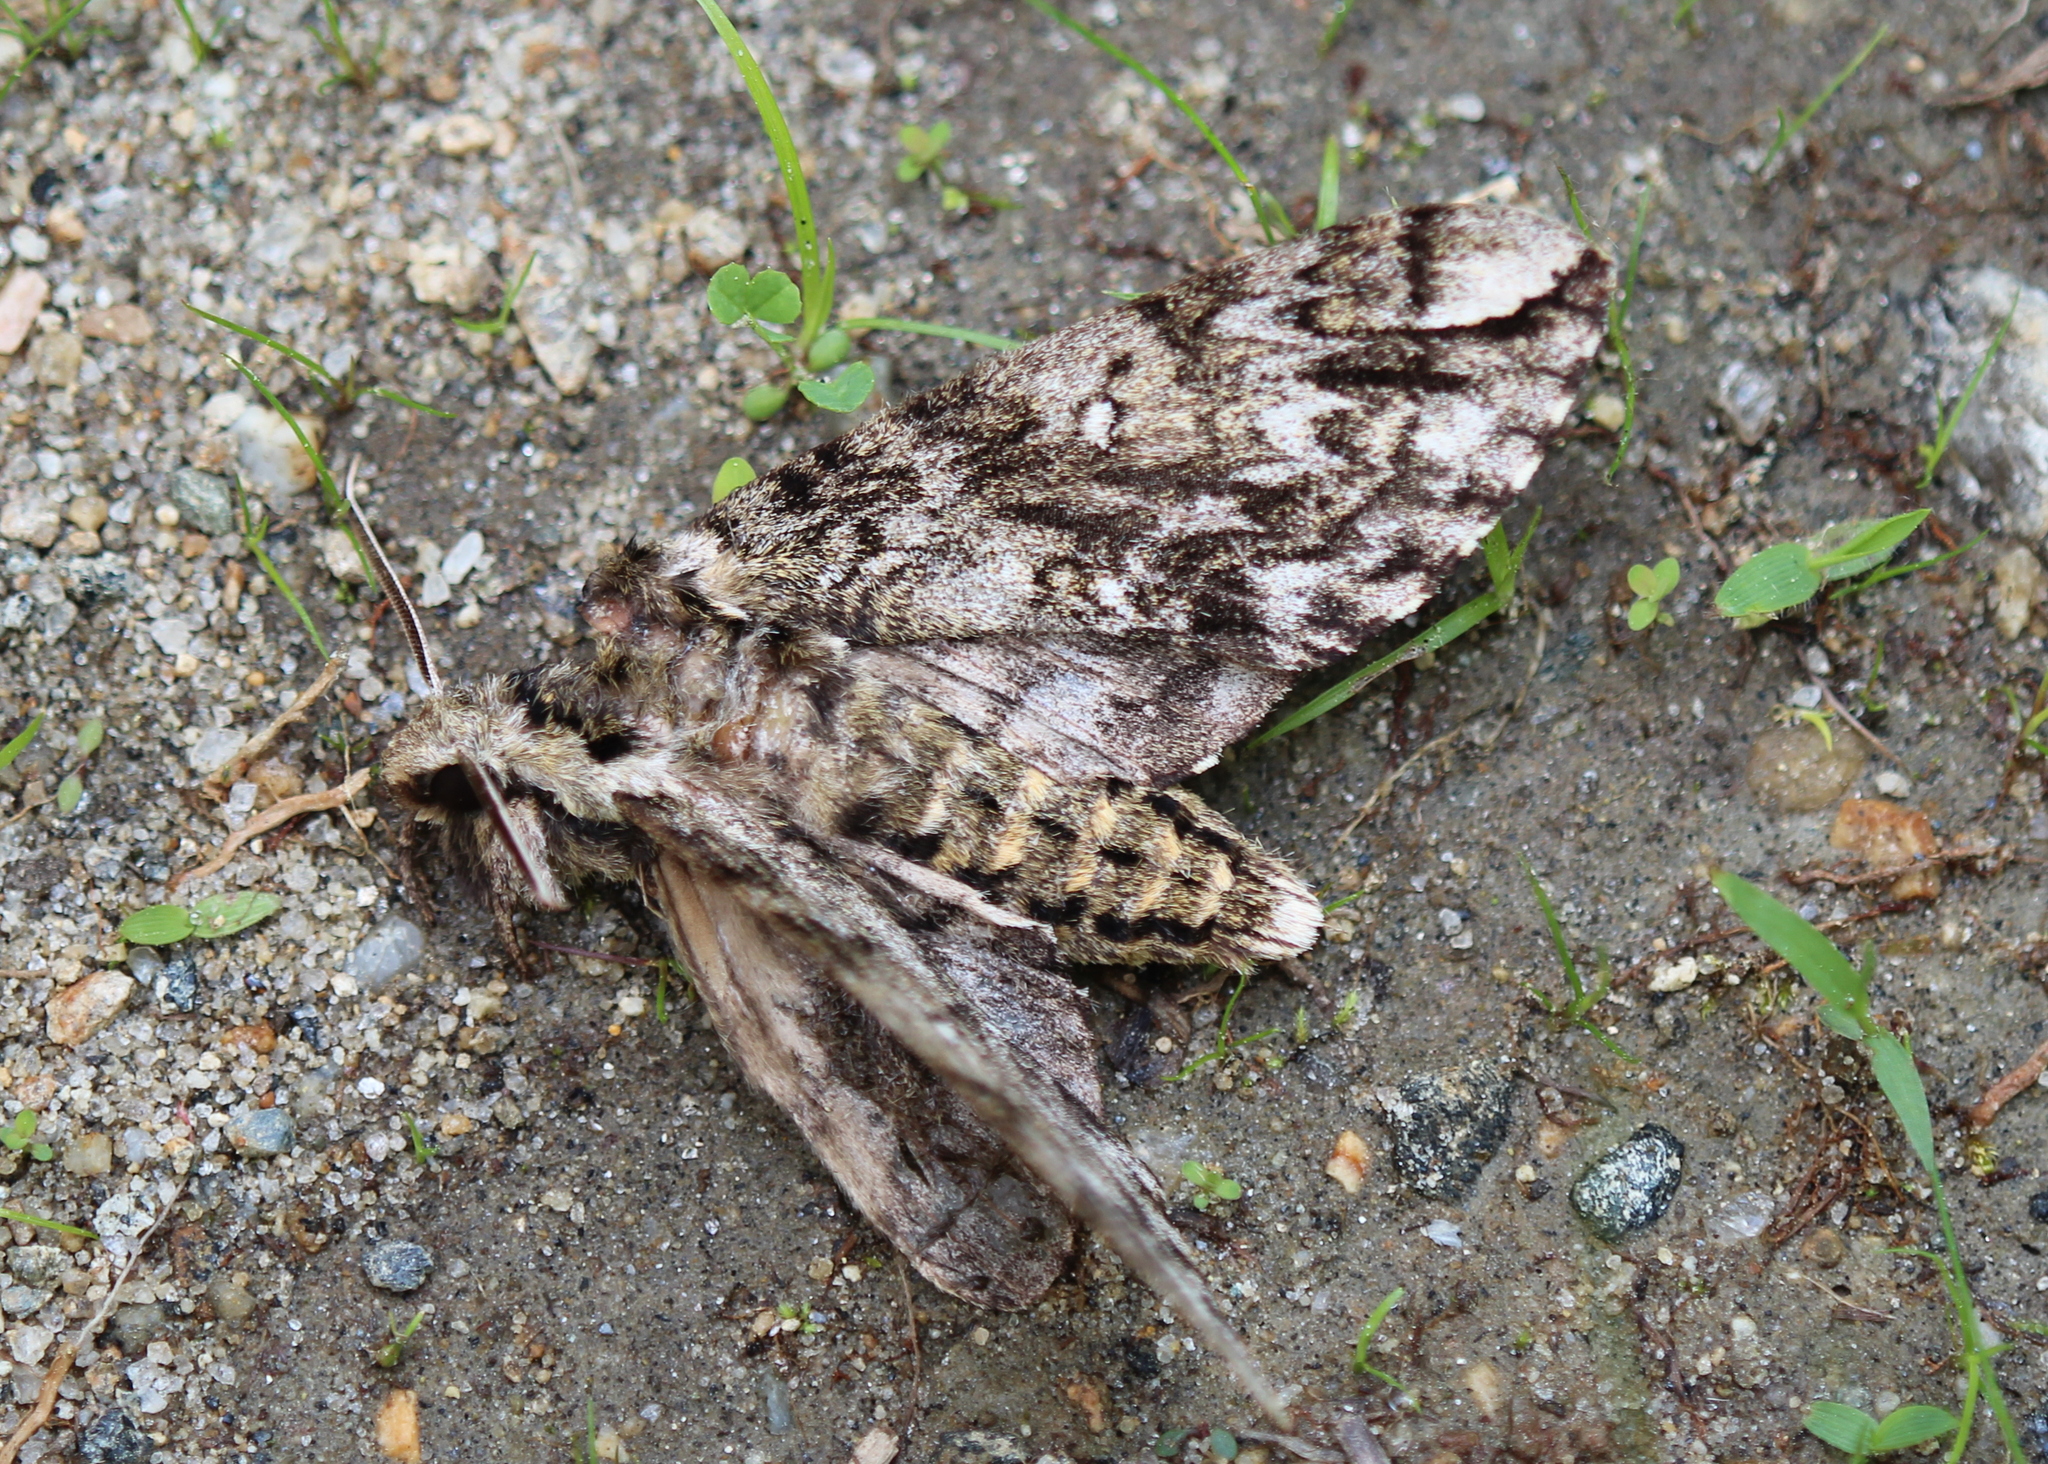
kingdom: Animalia
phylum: Arthropoda
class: Insecta
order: Lepidoptera
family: Sphingidae
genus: Ceratomia
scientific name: Ceratomia undulosa
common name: Waved sphinx
